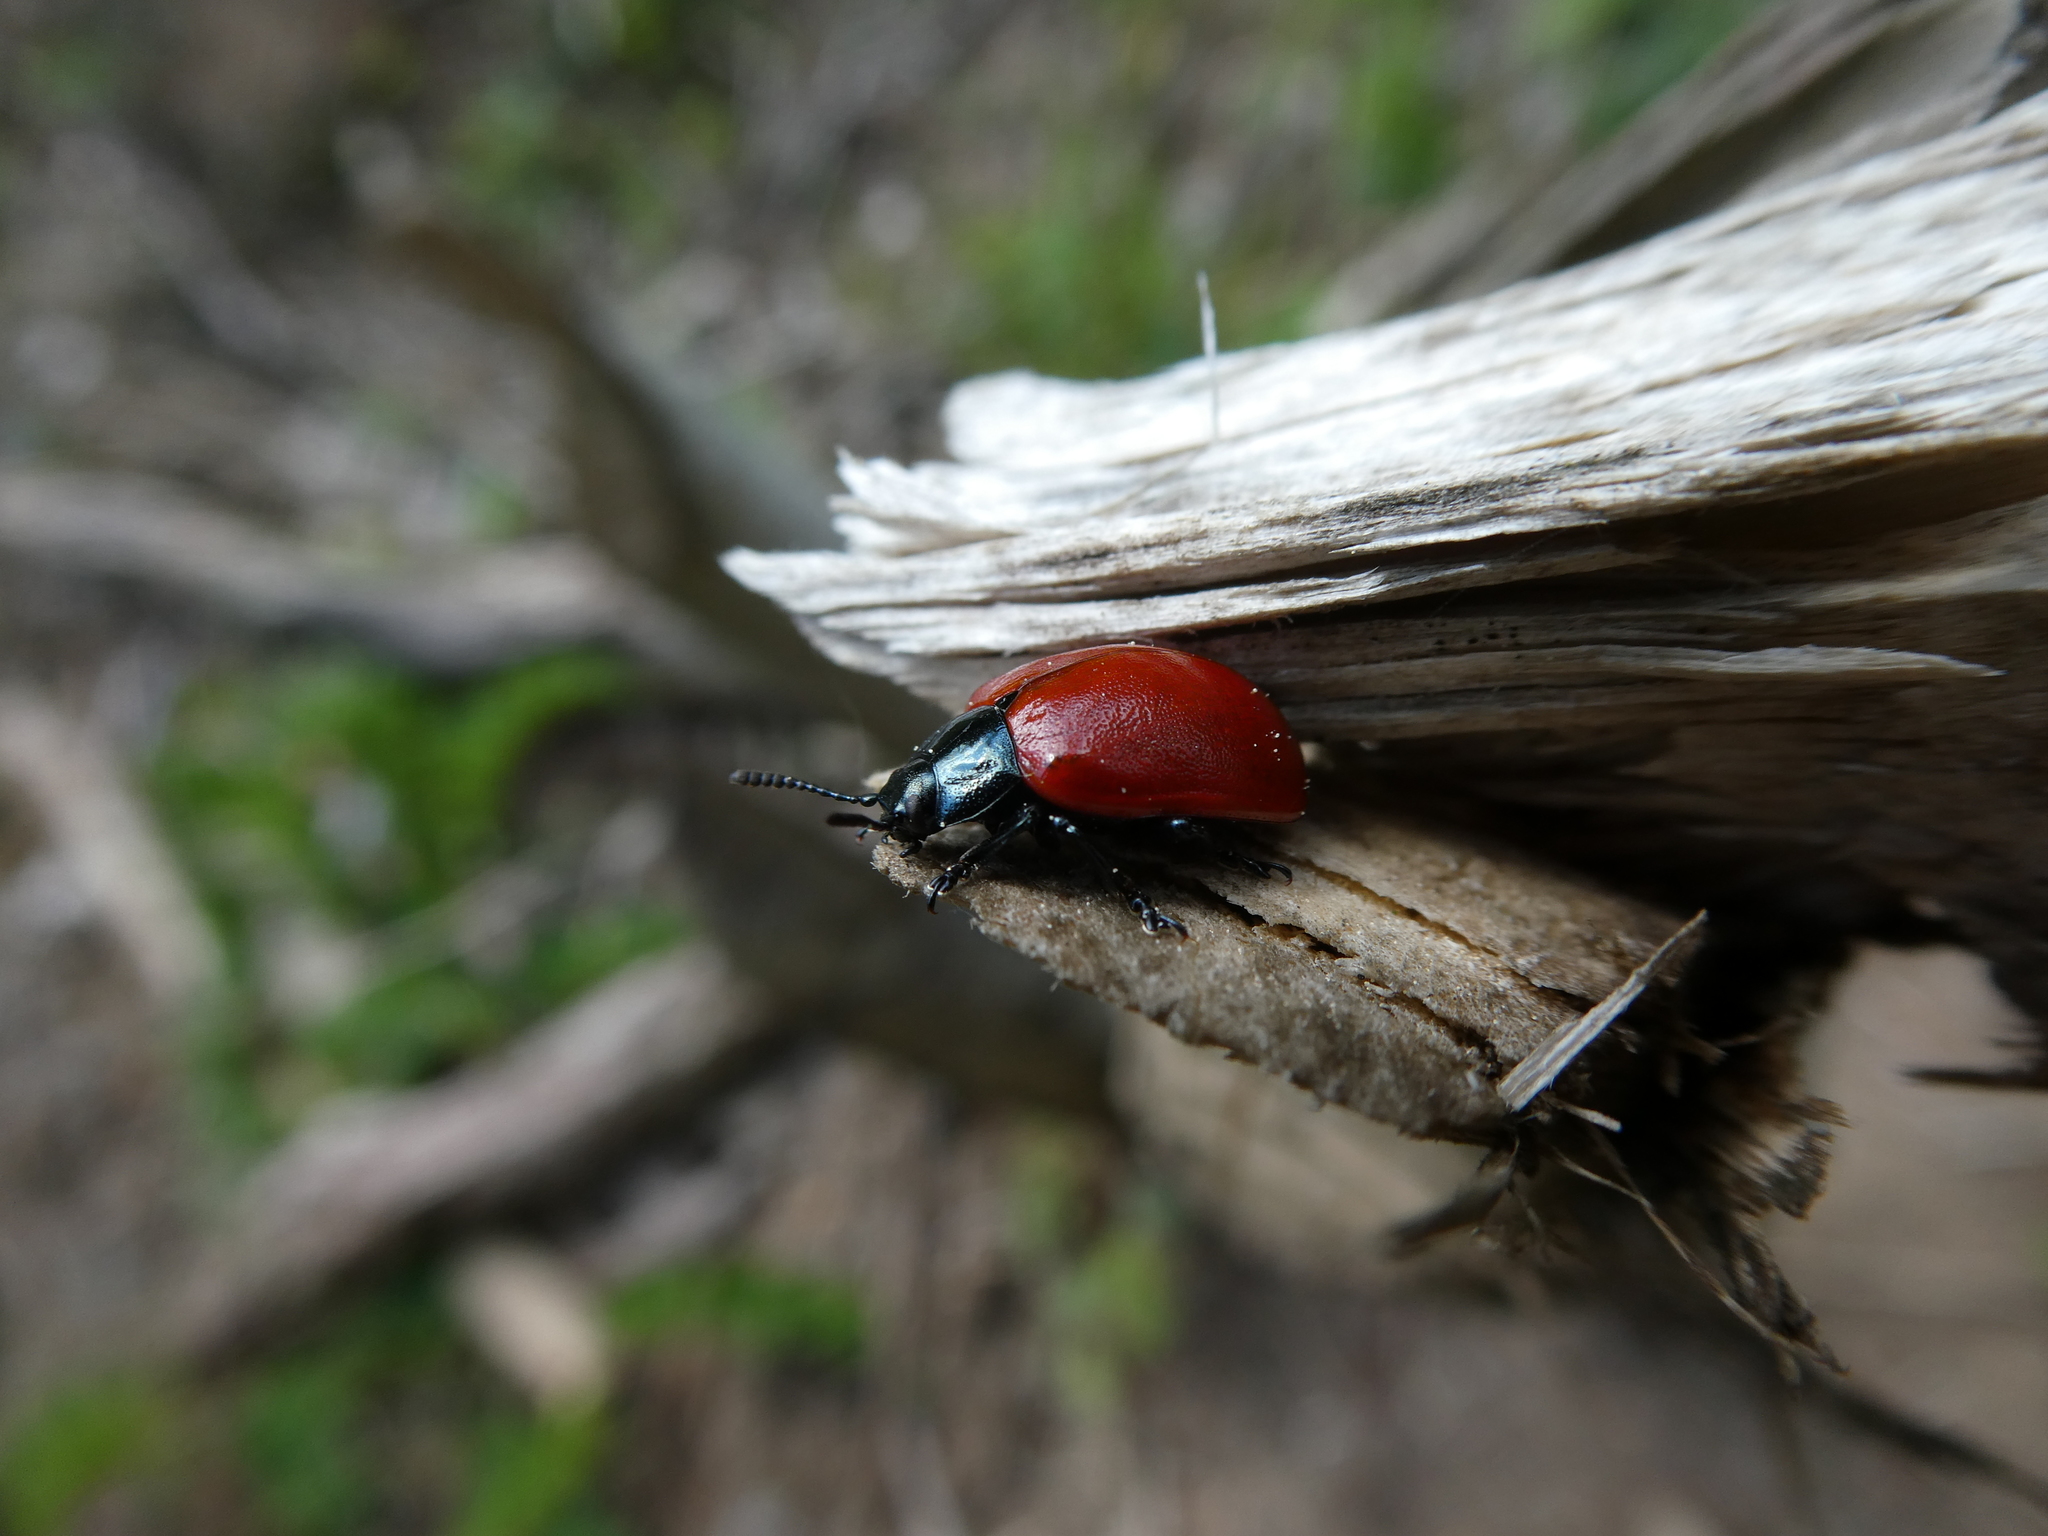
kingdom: Animalia
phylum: Arthropoda
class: Insecta
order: Coleoptera
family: Chrysomelidae
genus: Chrysomela
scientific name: Chrysomela populi
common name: Red poplar leaf beetle
